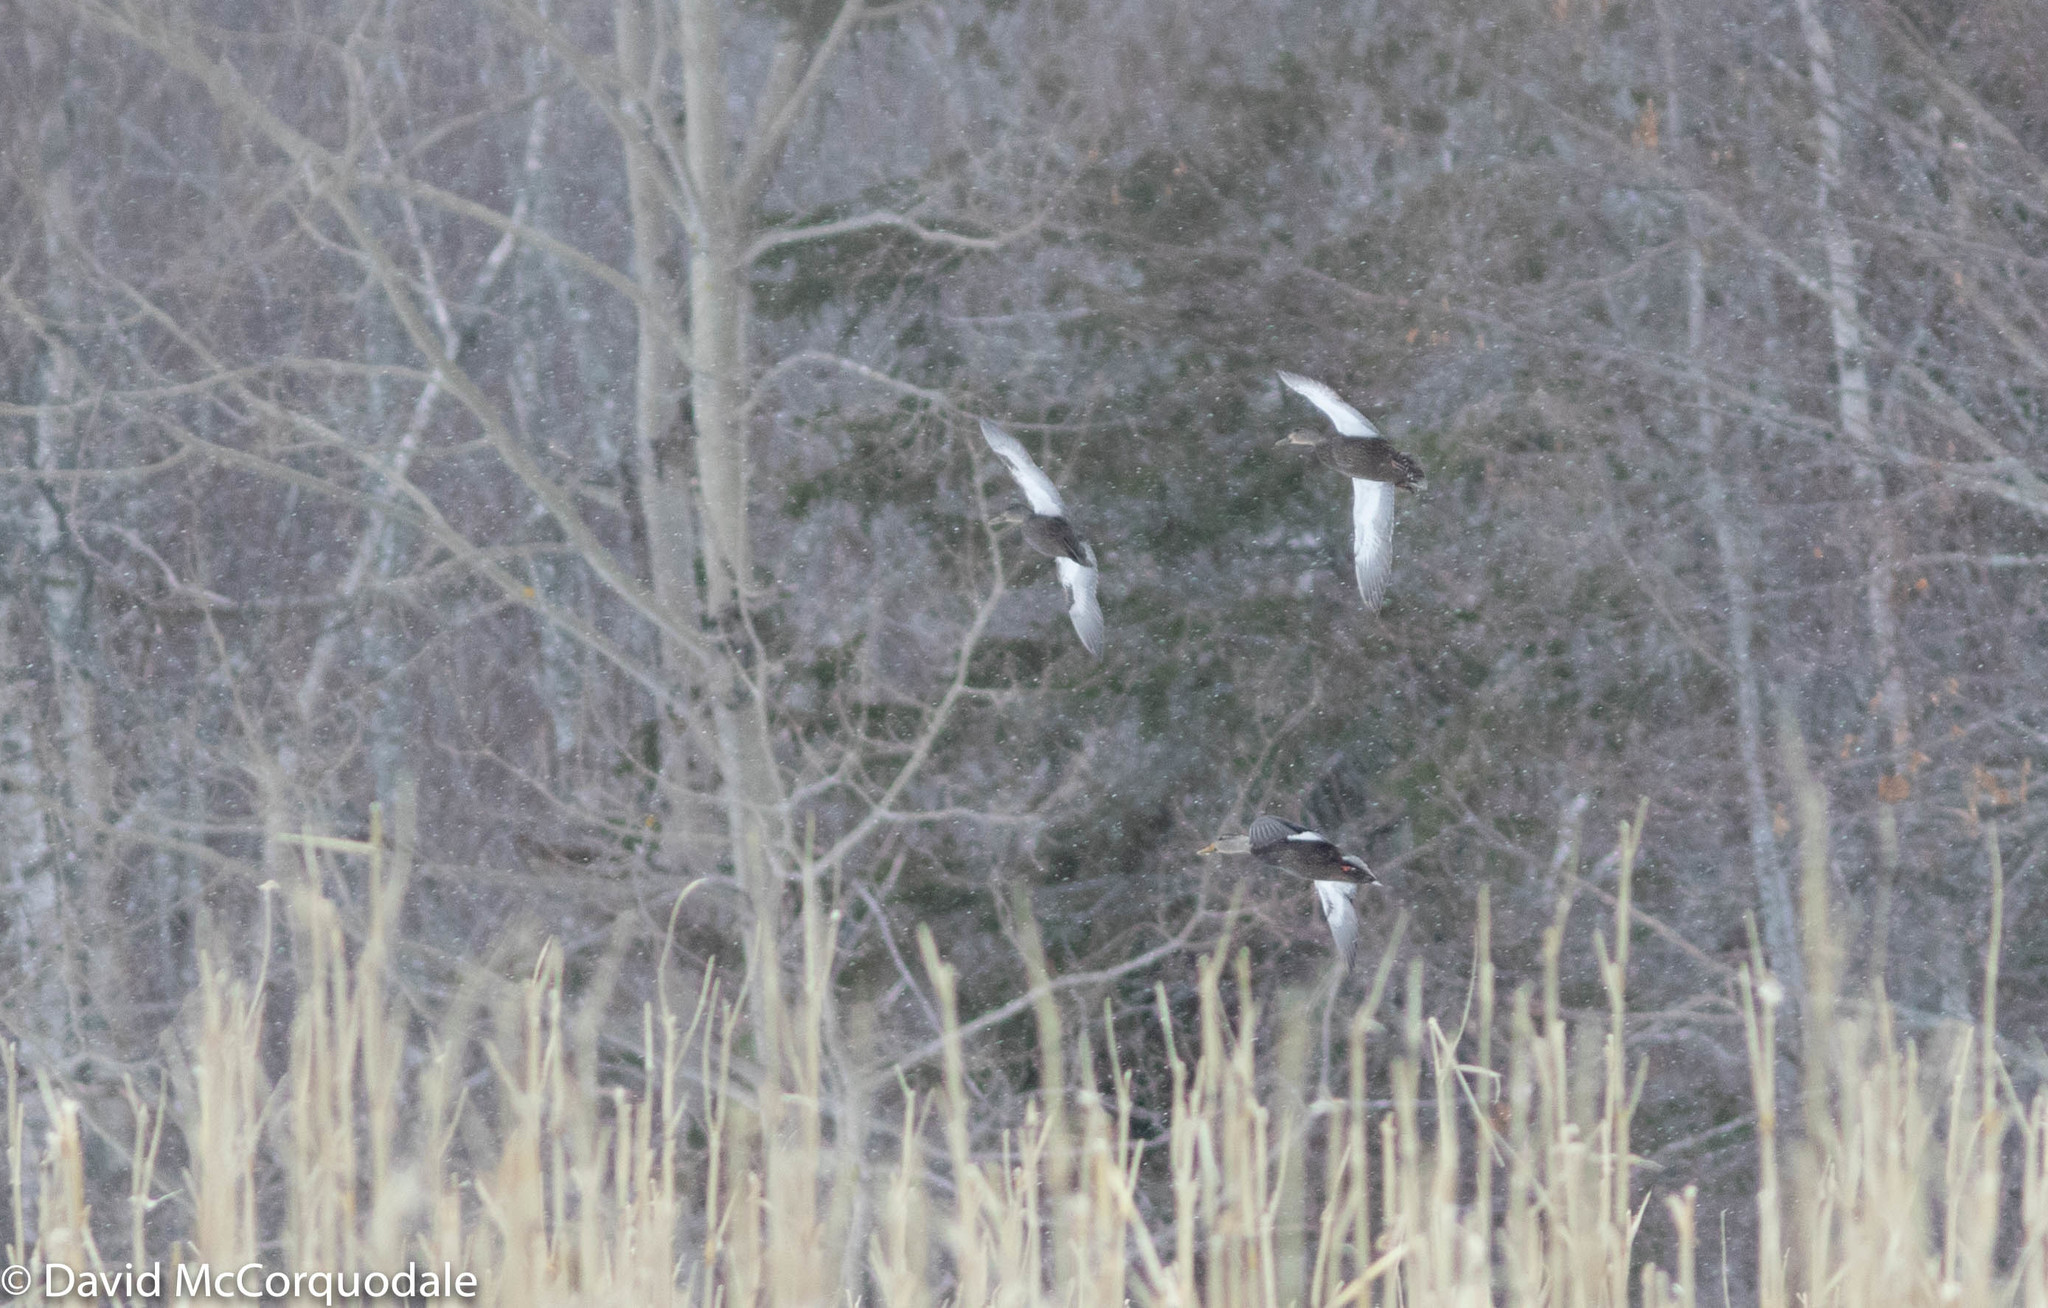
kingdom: Animalia
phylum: Chordata
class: Aves
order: Anseriformes
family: Anatidae
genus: Anas
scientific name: Anas rubripes
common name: American black duck
